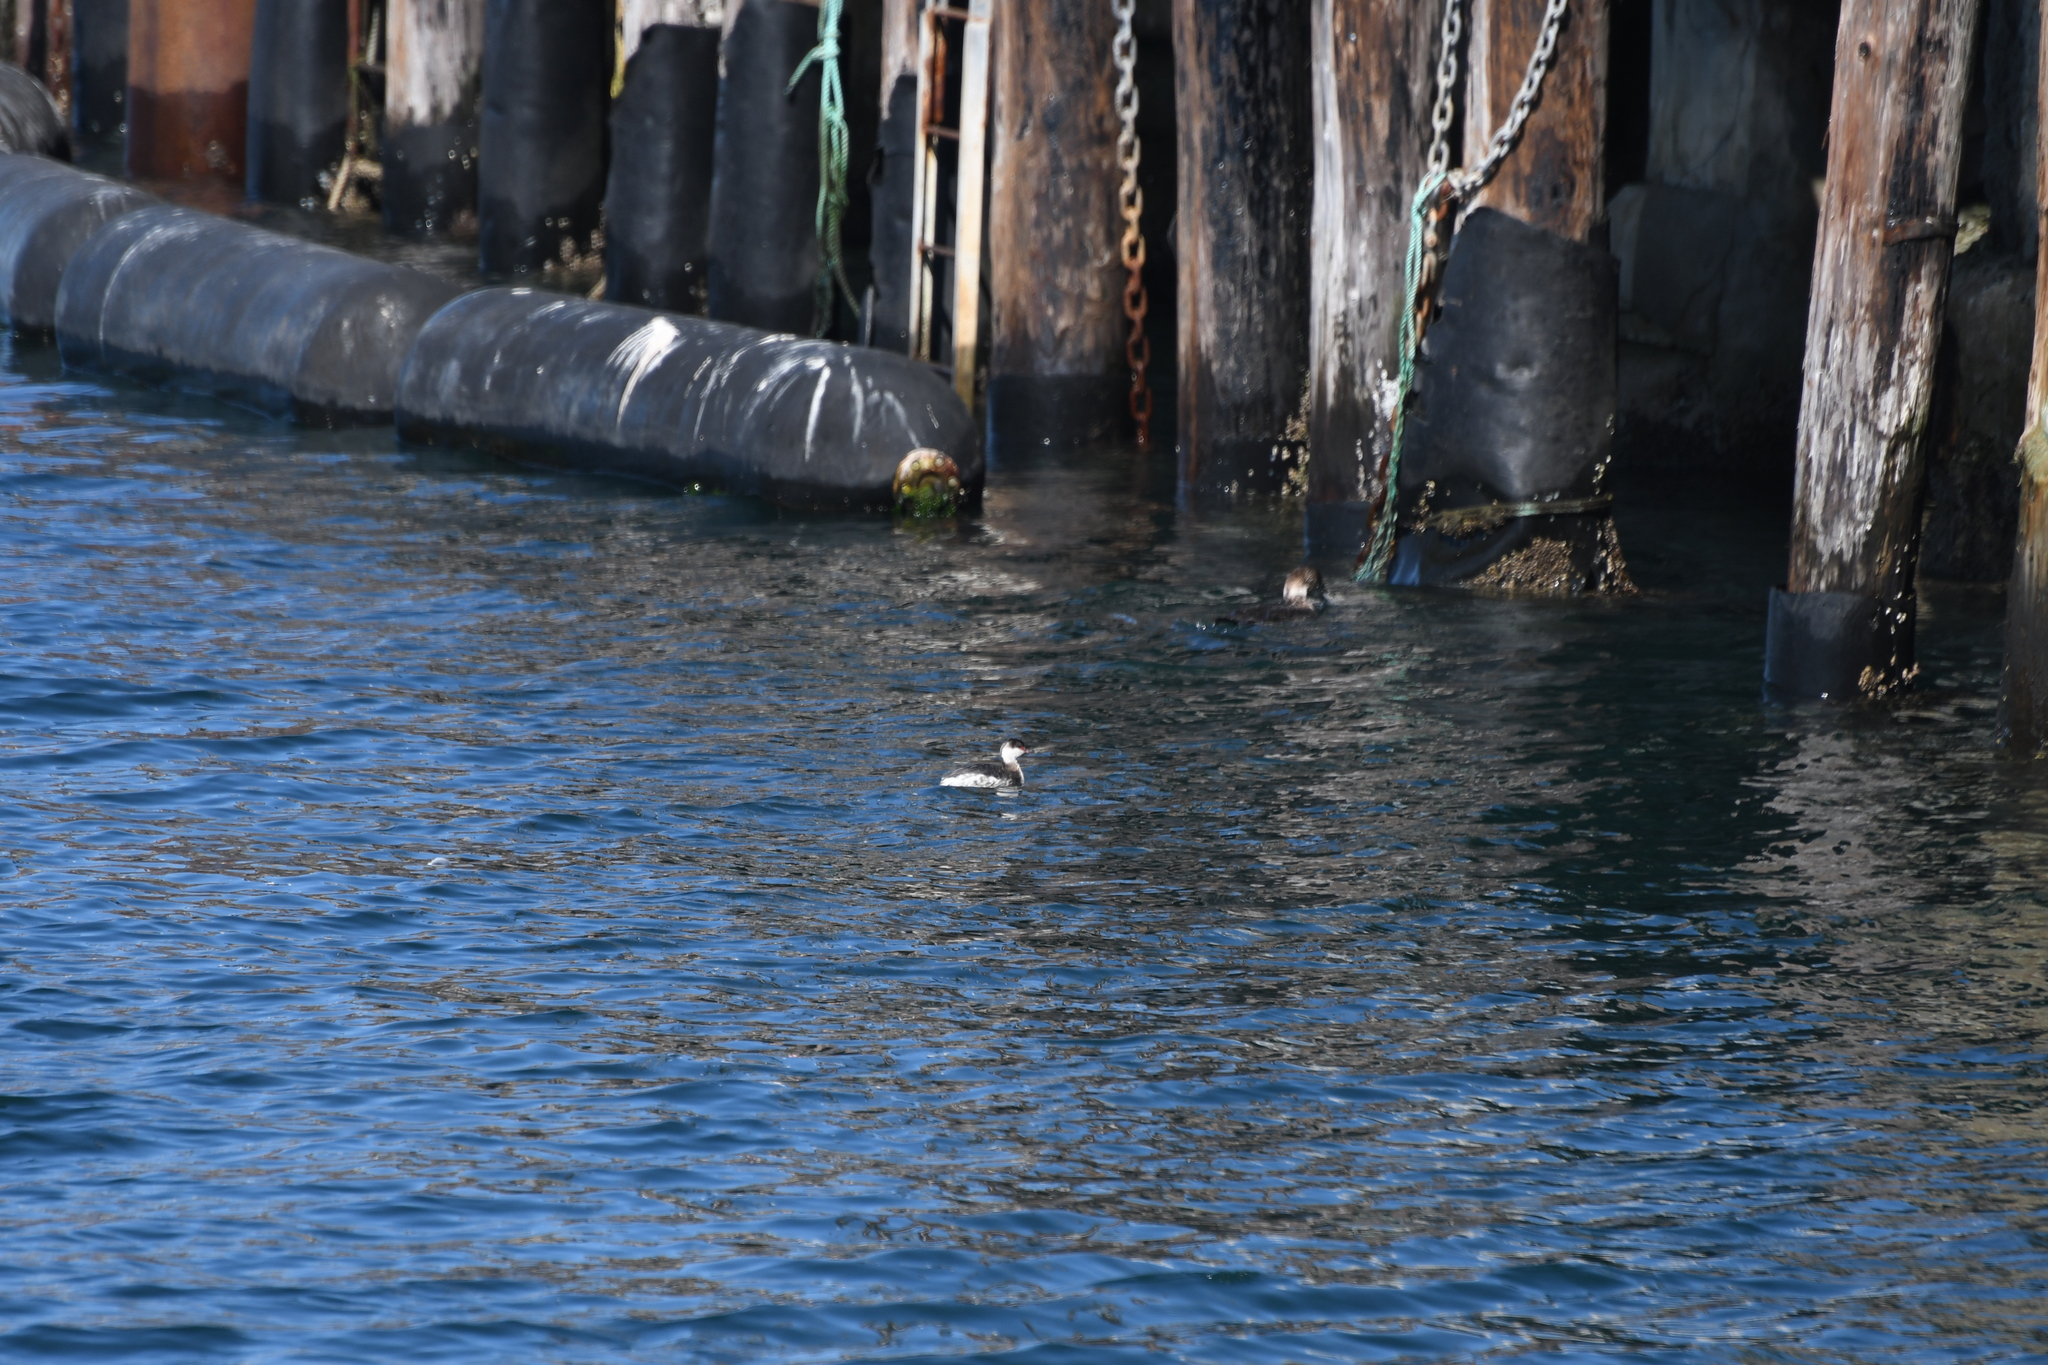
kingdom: Animalia
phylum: Chordata
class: Aves
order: Podicipediformes
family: Podicipedidae
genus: Podiceps
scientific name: Podiceps auritus
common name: Horned grebe
